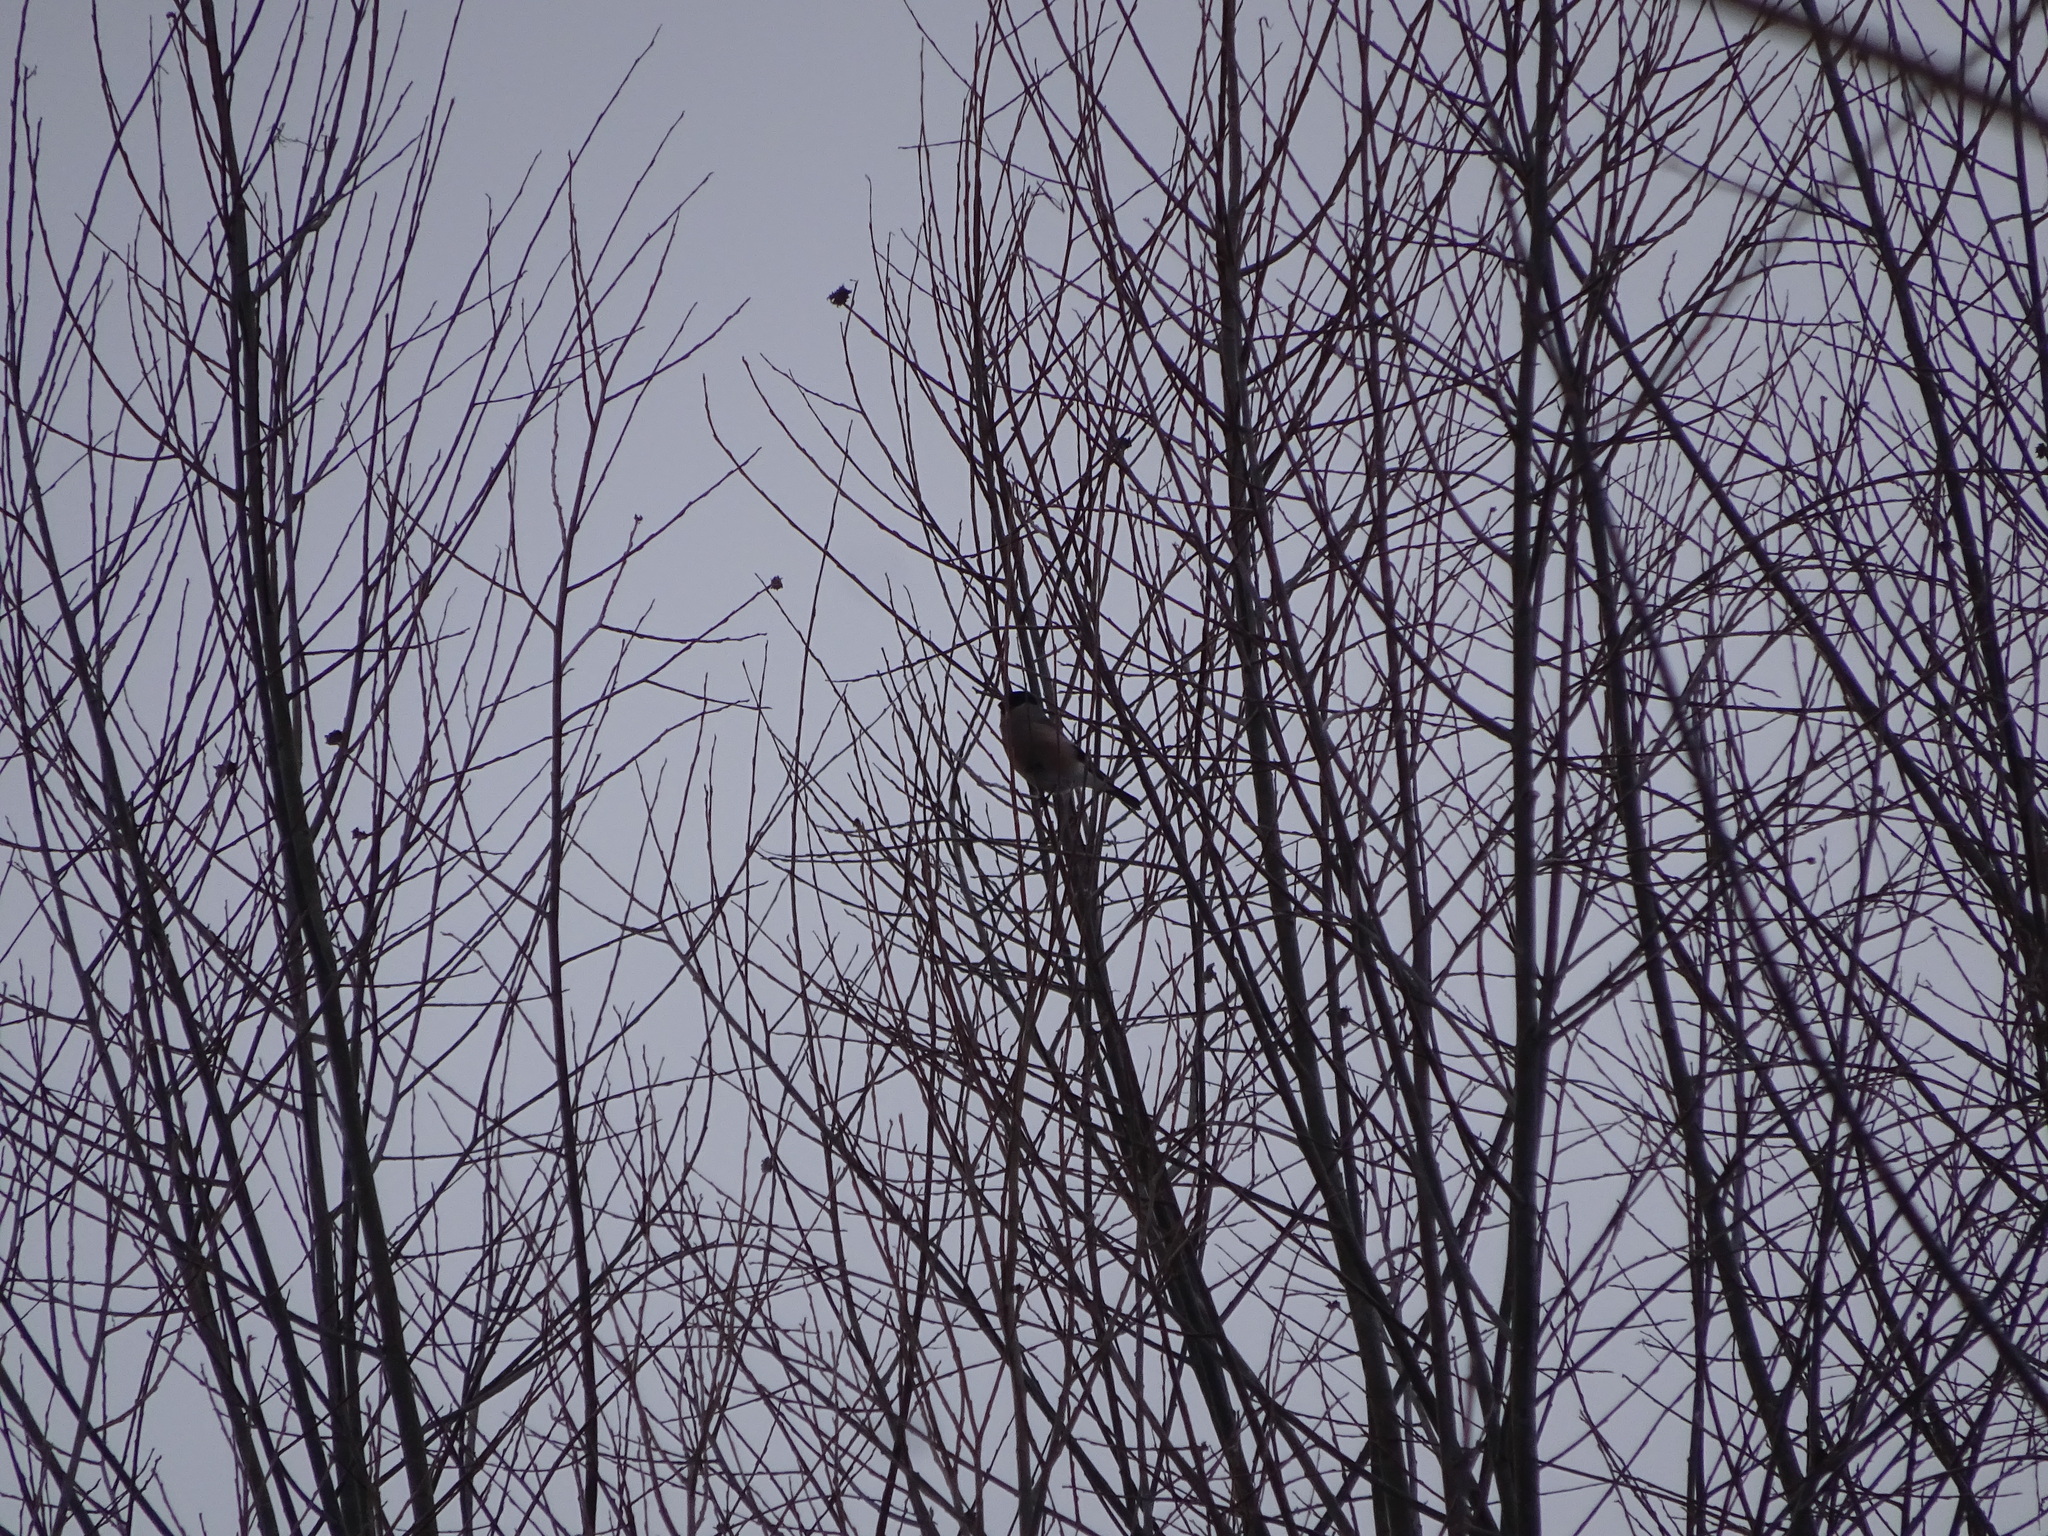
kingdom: Animalia
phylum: Chordata
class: Aves
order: Passeriformes
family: Fringillidae
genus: Pyrrhula
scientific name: Pyrrhula pyrrhula
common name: Eurasian bullfinch
